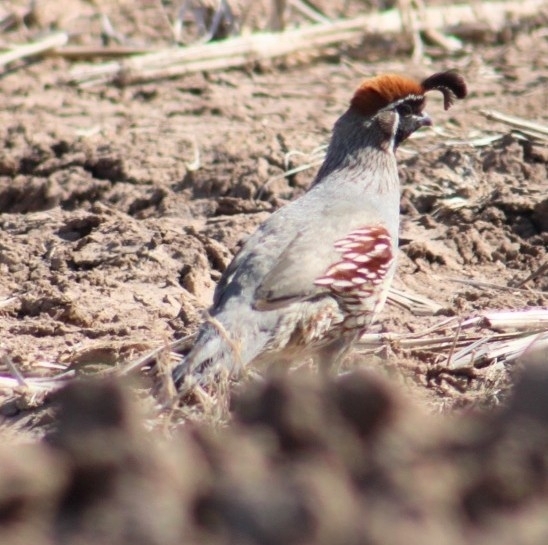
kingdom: Animalia
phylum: Chordata
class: Aves
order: Galliformes
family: Odontophoridae
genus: Callipepla
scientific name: Callipepla gambelii
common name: Gambel's quail
